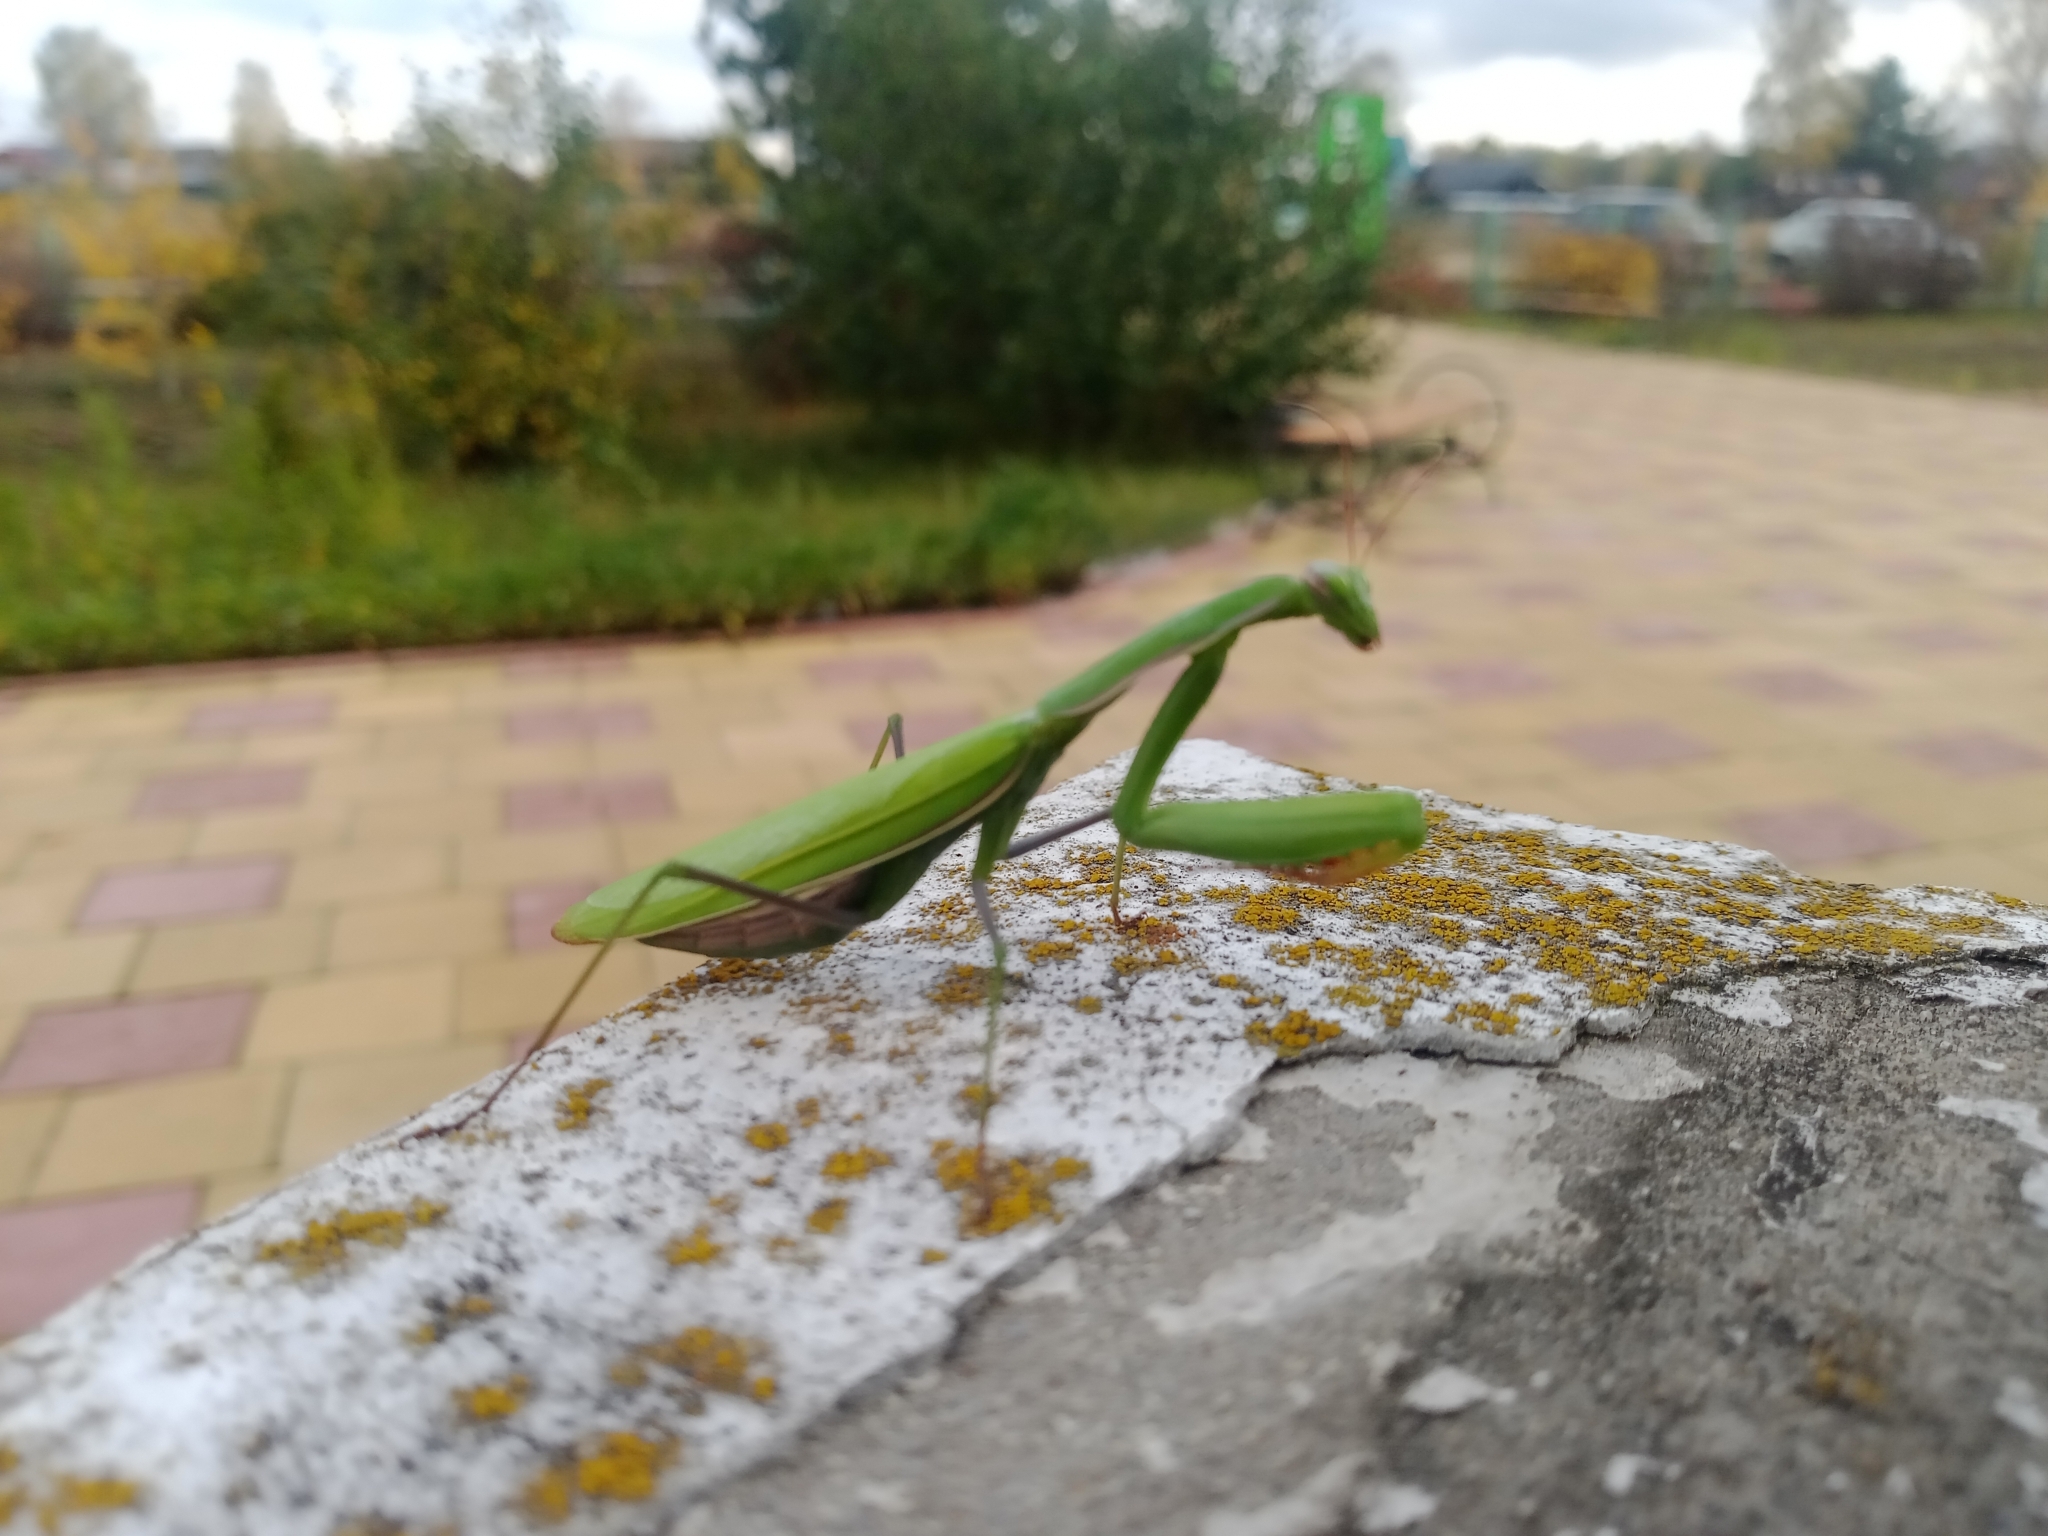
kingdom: Animalia
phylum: Arthropoda
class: Insecta
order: Mantodea
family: Mantidae
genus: Mantis
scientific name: Mantis religiosa
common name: Praying mantis
